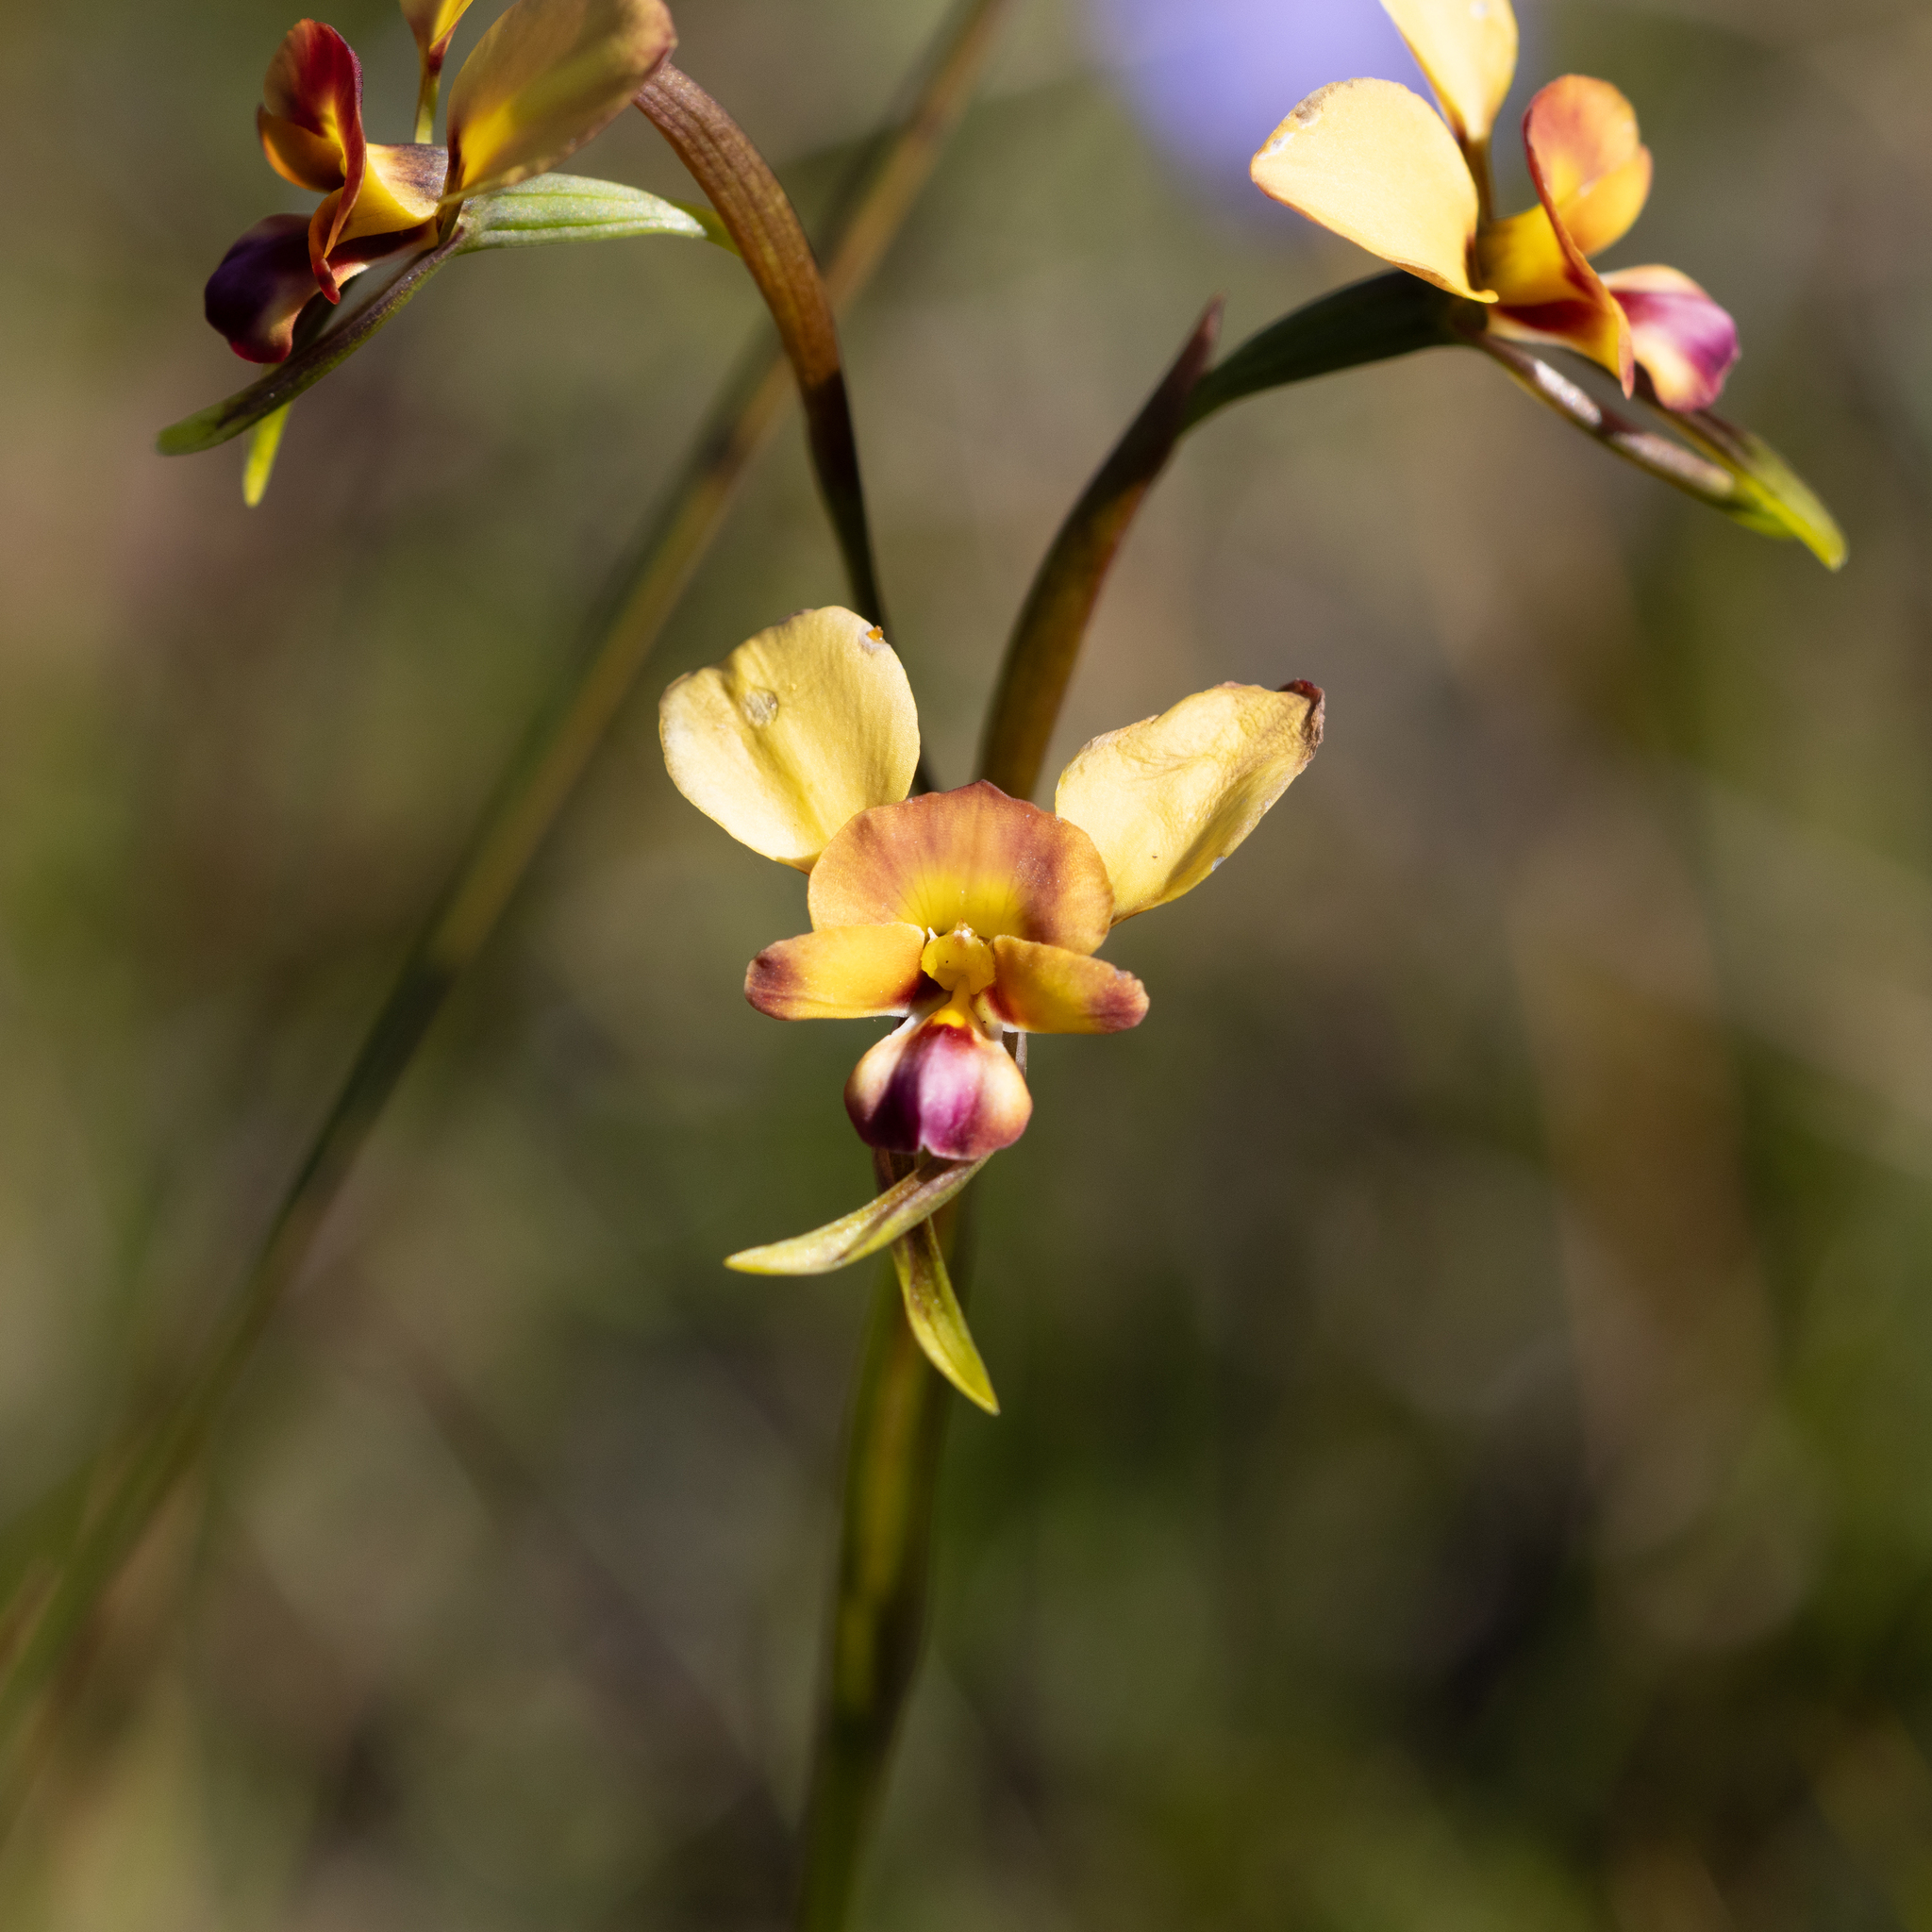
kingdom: Plantae
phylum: Tracheophyta
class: Liliopsida
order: Asparagales
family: Orchidaceae
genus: Diuris
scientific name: Diuris orientis
